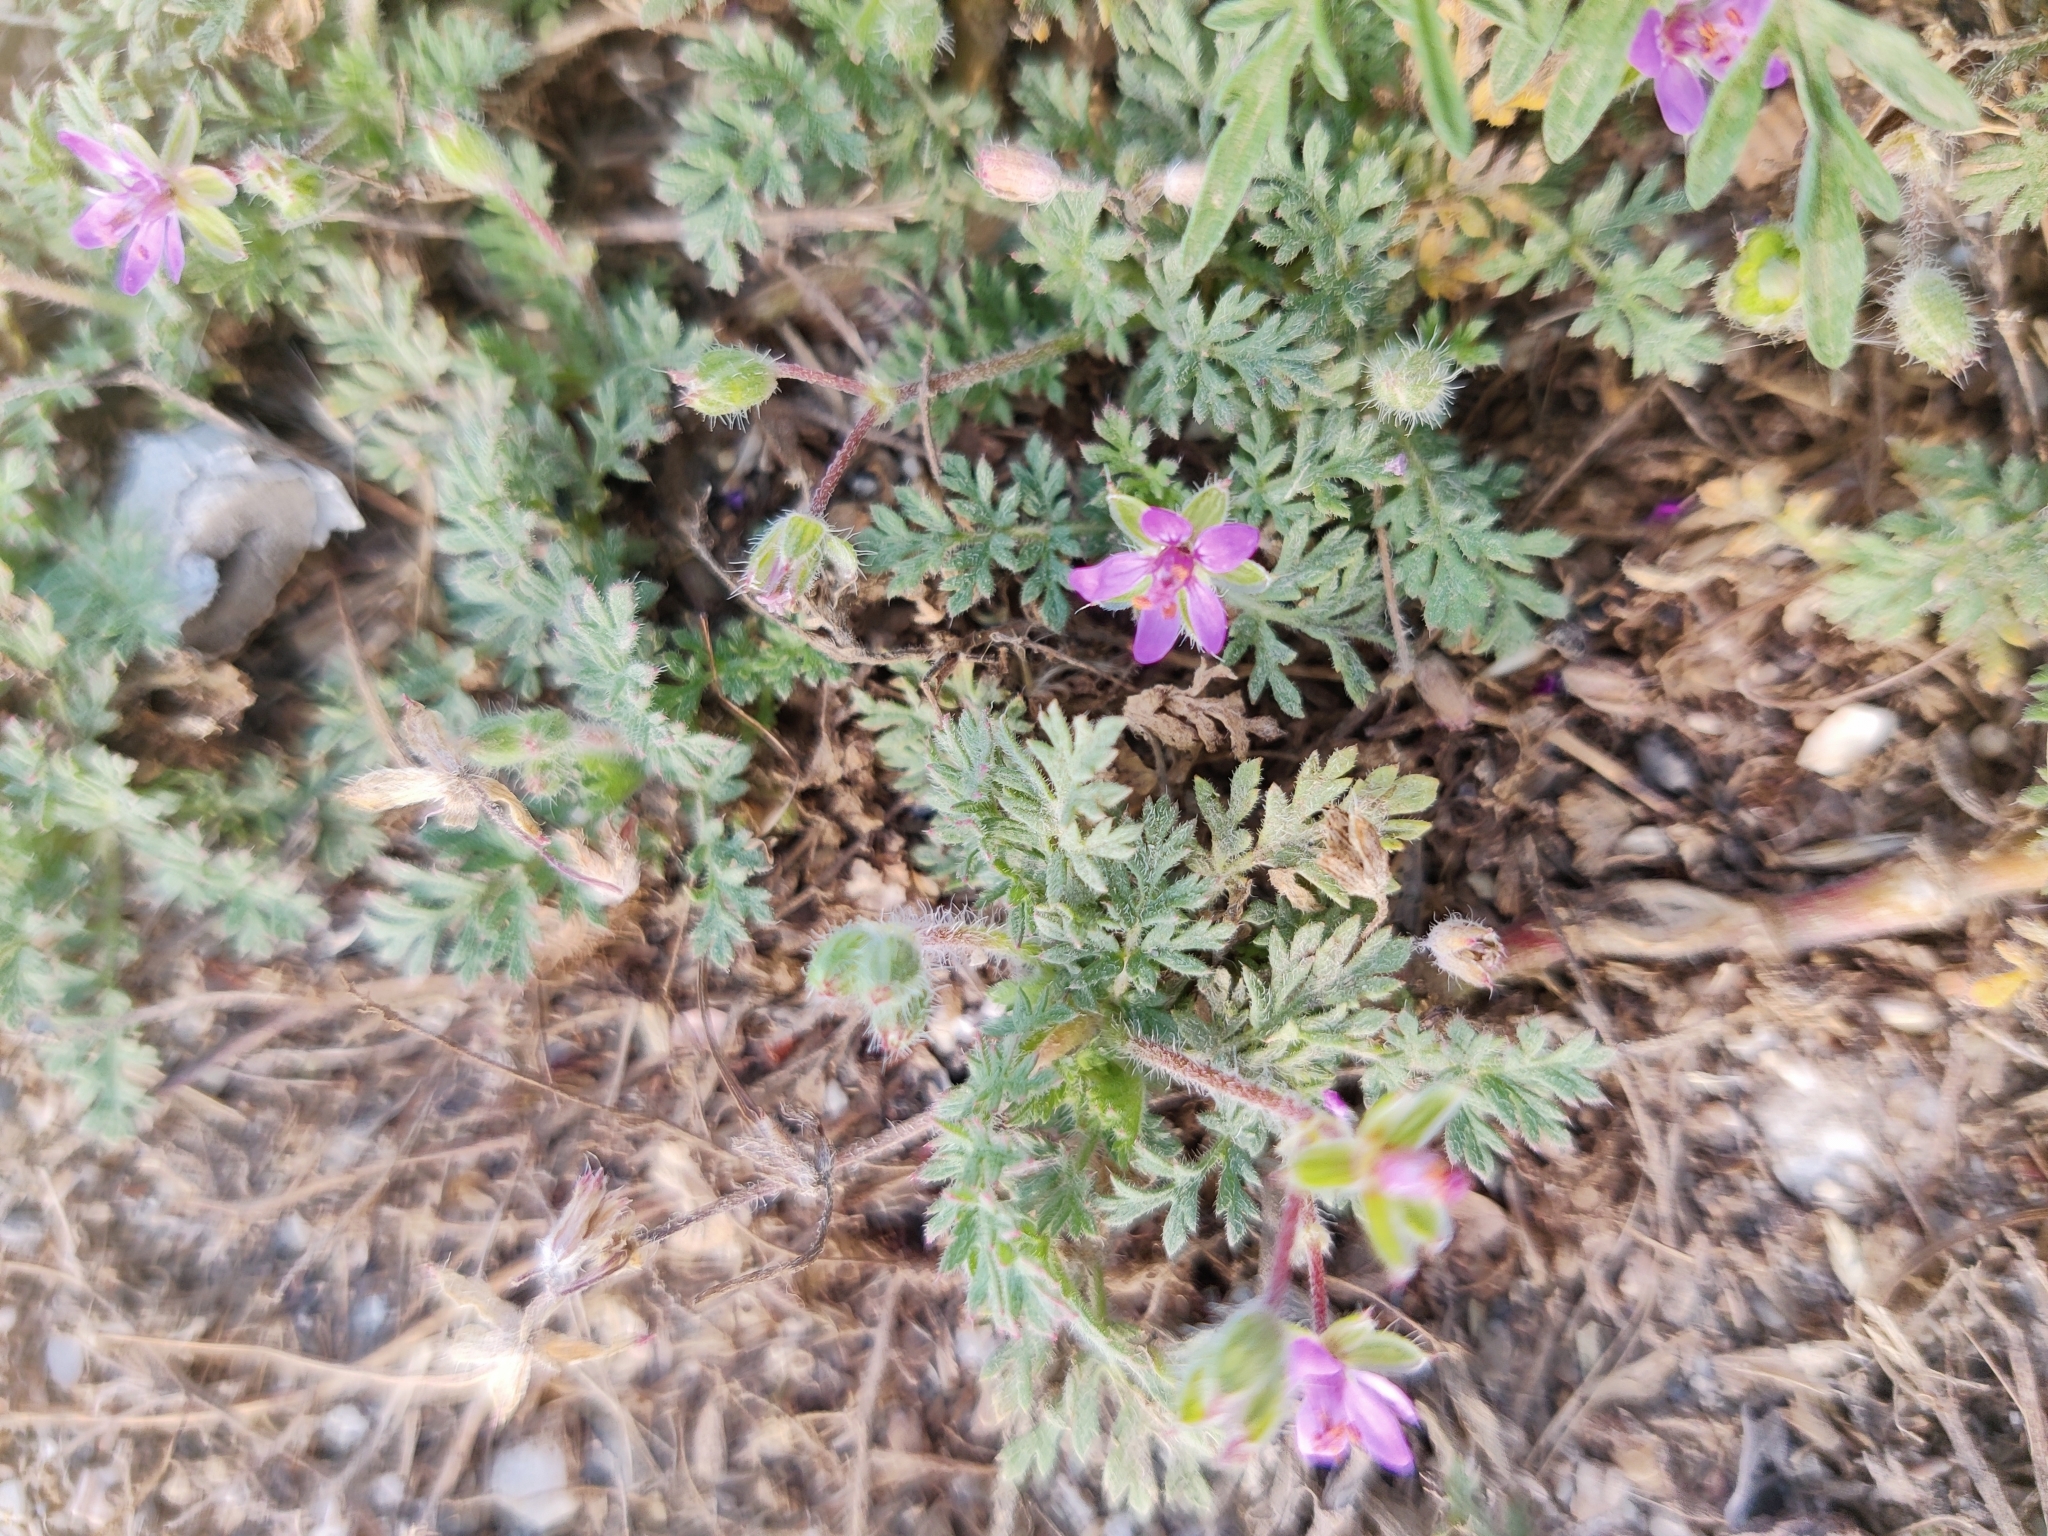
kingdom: Plantae
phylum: Tracheophyta
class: Magnoliopsida
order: Geraniales
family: Geraniaceae
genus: Erodium
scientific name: Erodium cicutarium
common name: Common stork's-bill
